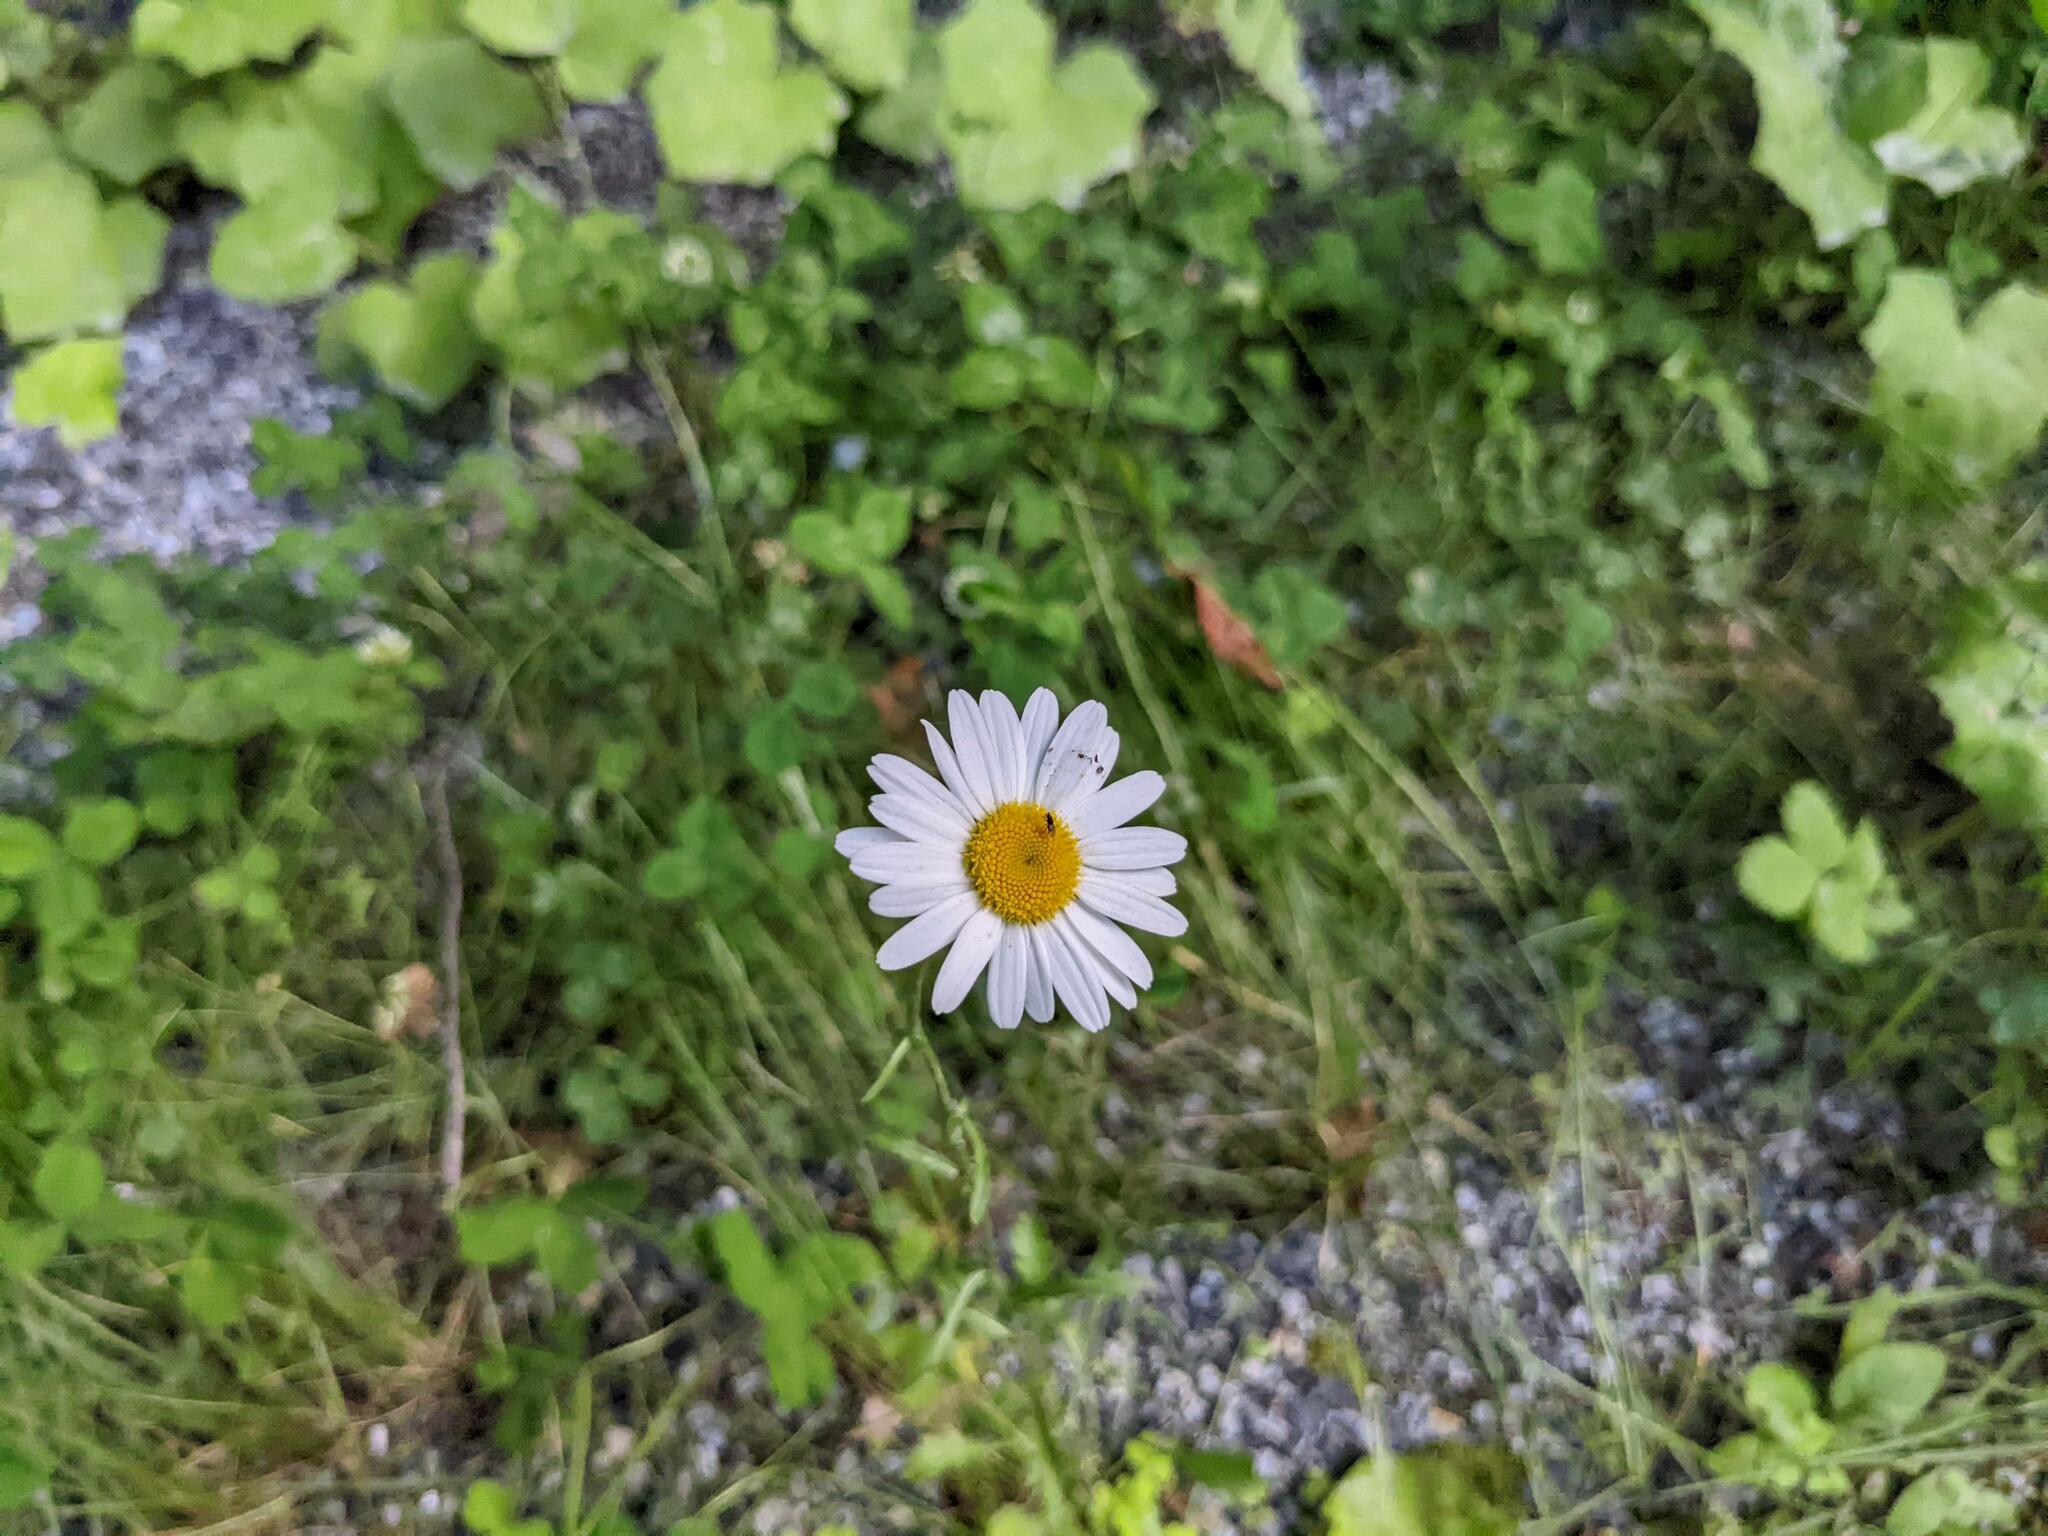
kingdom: Plantae
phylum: Tracheophyta
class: Magnoliopsida
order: Asterales
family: Asteraceae
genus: Leucanthemum
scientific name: Leucanthemum vulgare
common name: Oxeye daisy
